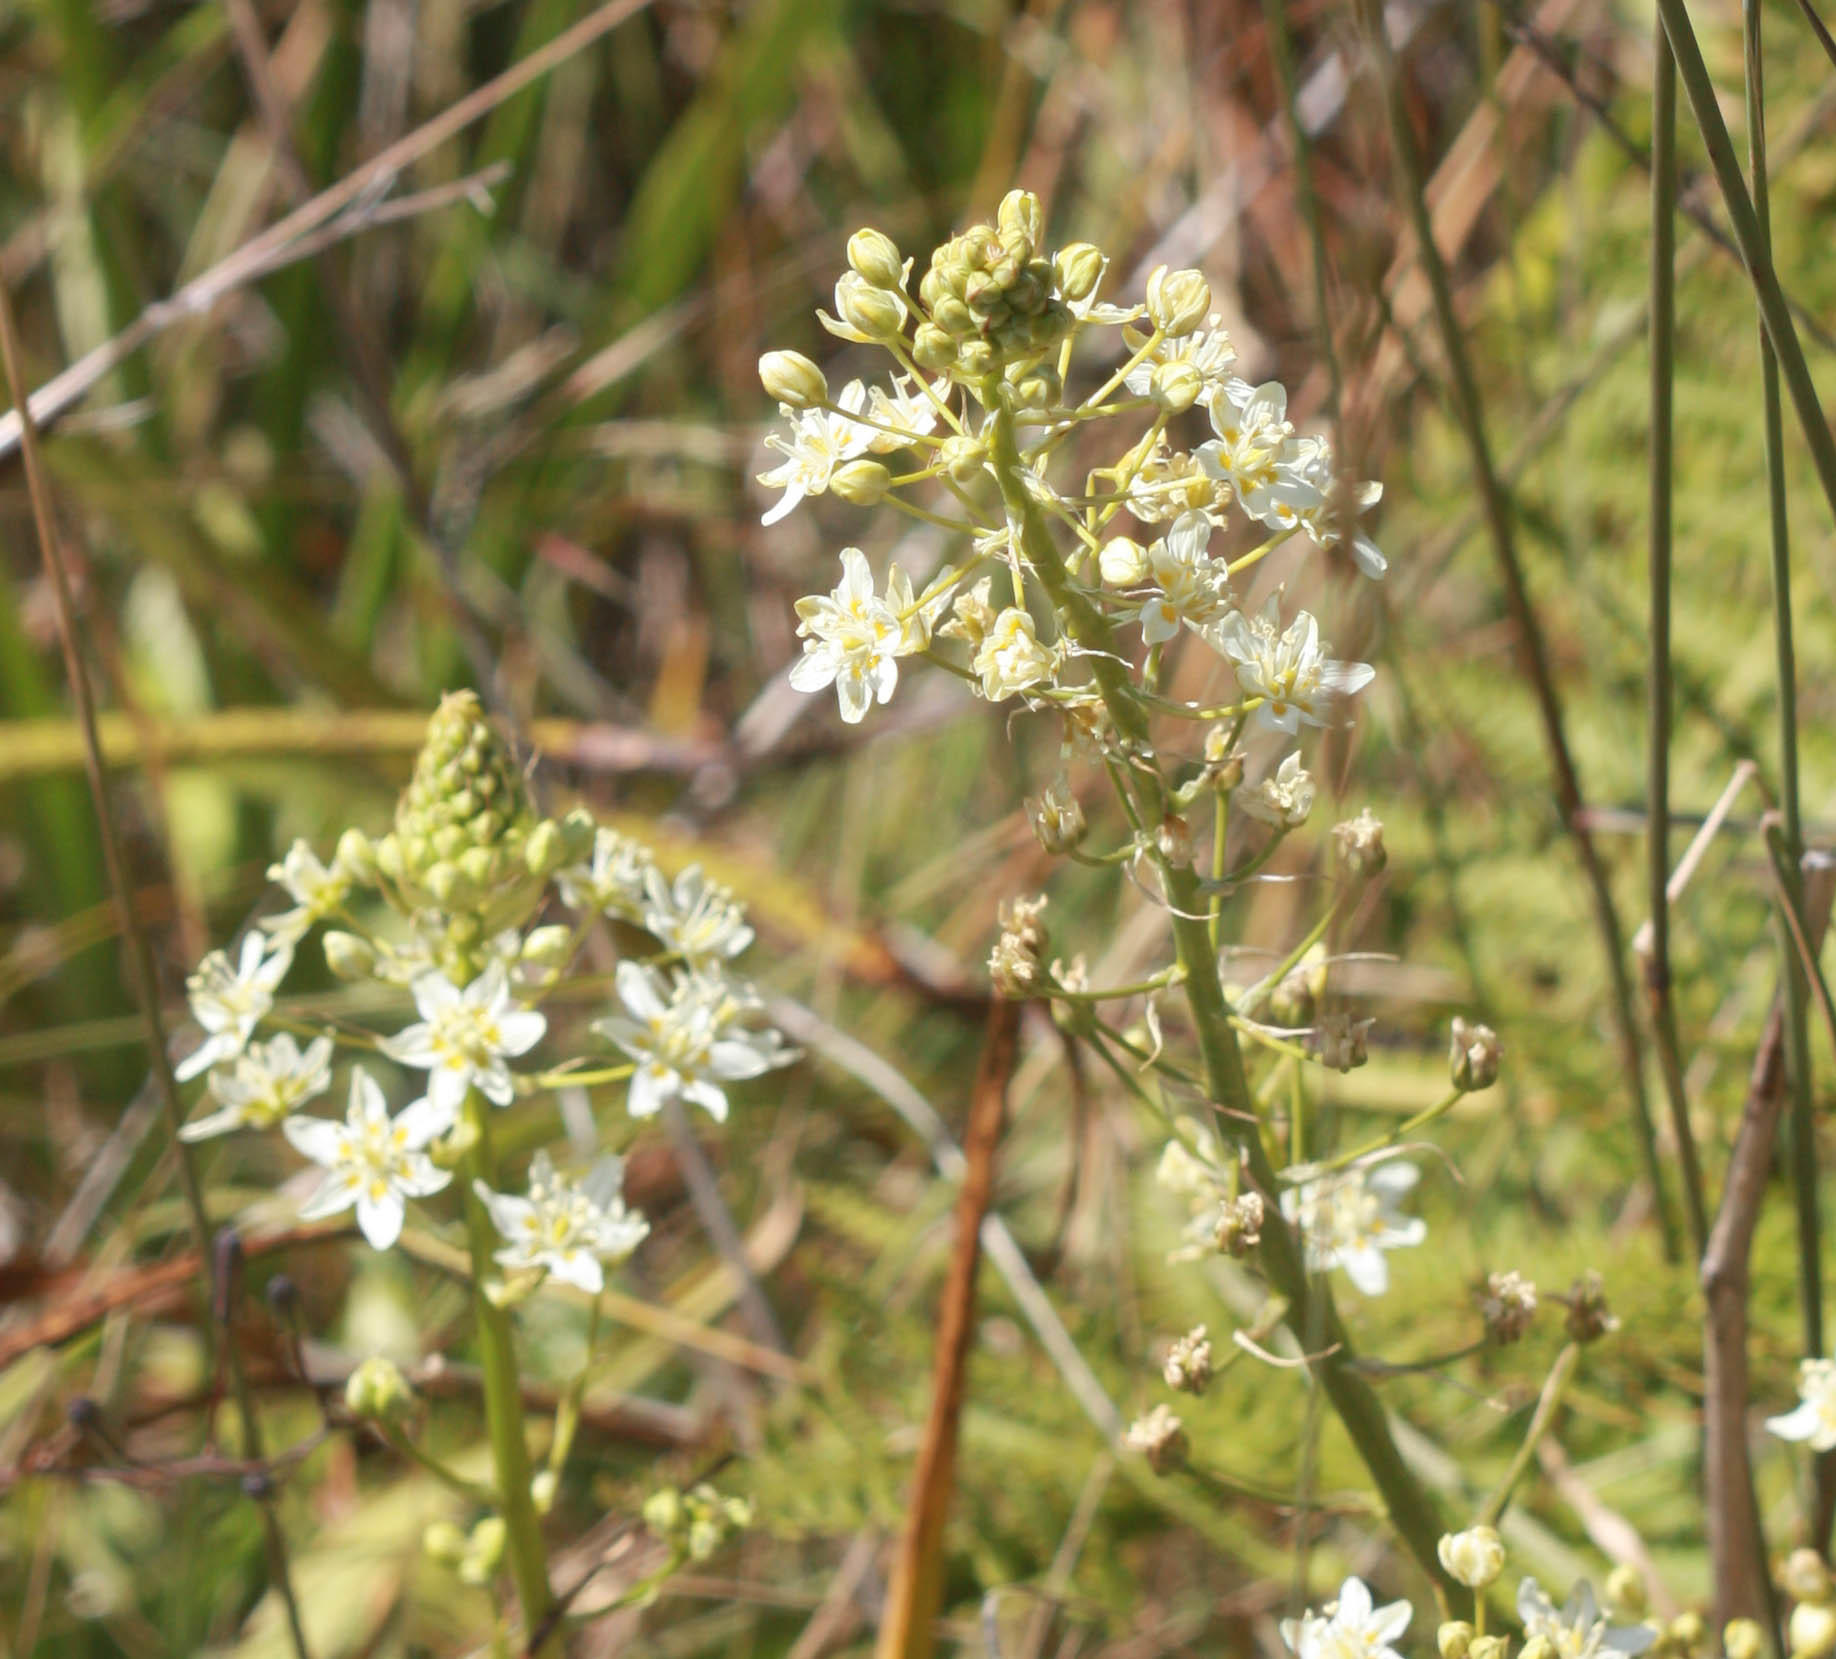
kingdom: Plantae
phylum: Tracheophyta
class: Liliopsida
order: Liliales
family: Melanthiaceae
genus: Toxicoscordion
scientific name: Toxicoscordion fontanum
